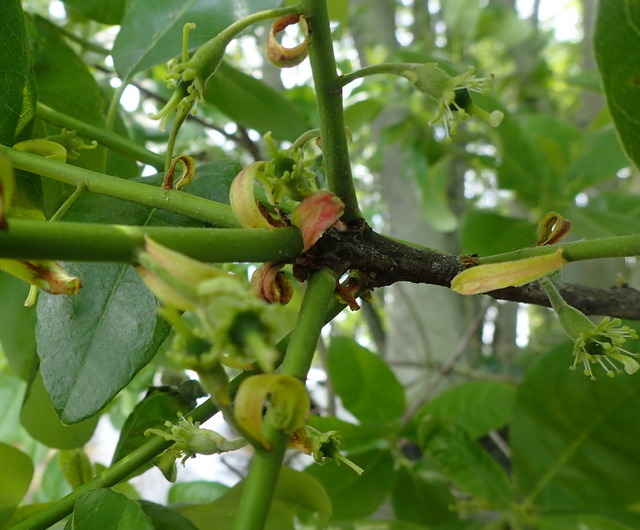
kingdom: Plantae
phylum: Tracheophyta
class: Magnoliopsida
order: Cornales
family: Nyssaceae
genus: Nyssa
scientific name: Nyssa ogeche
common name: Ogeechee tupelo
